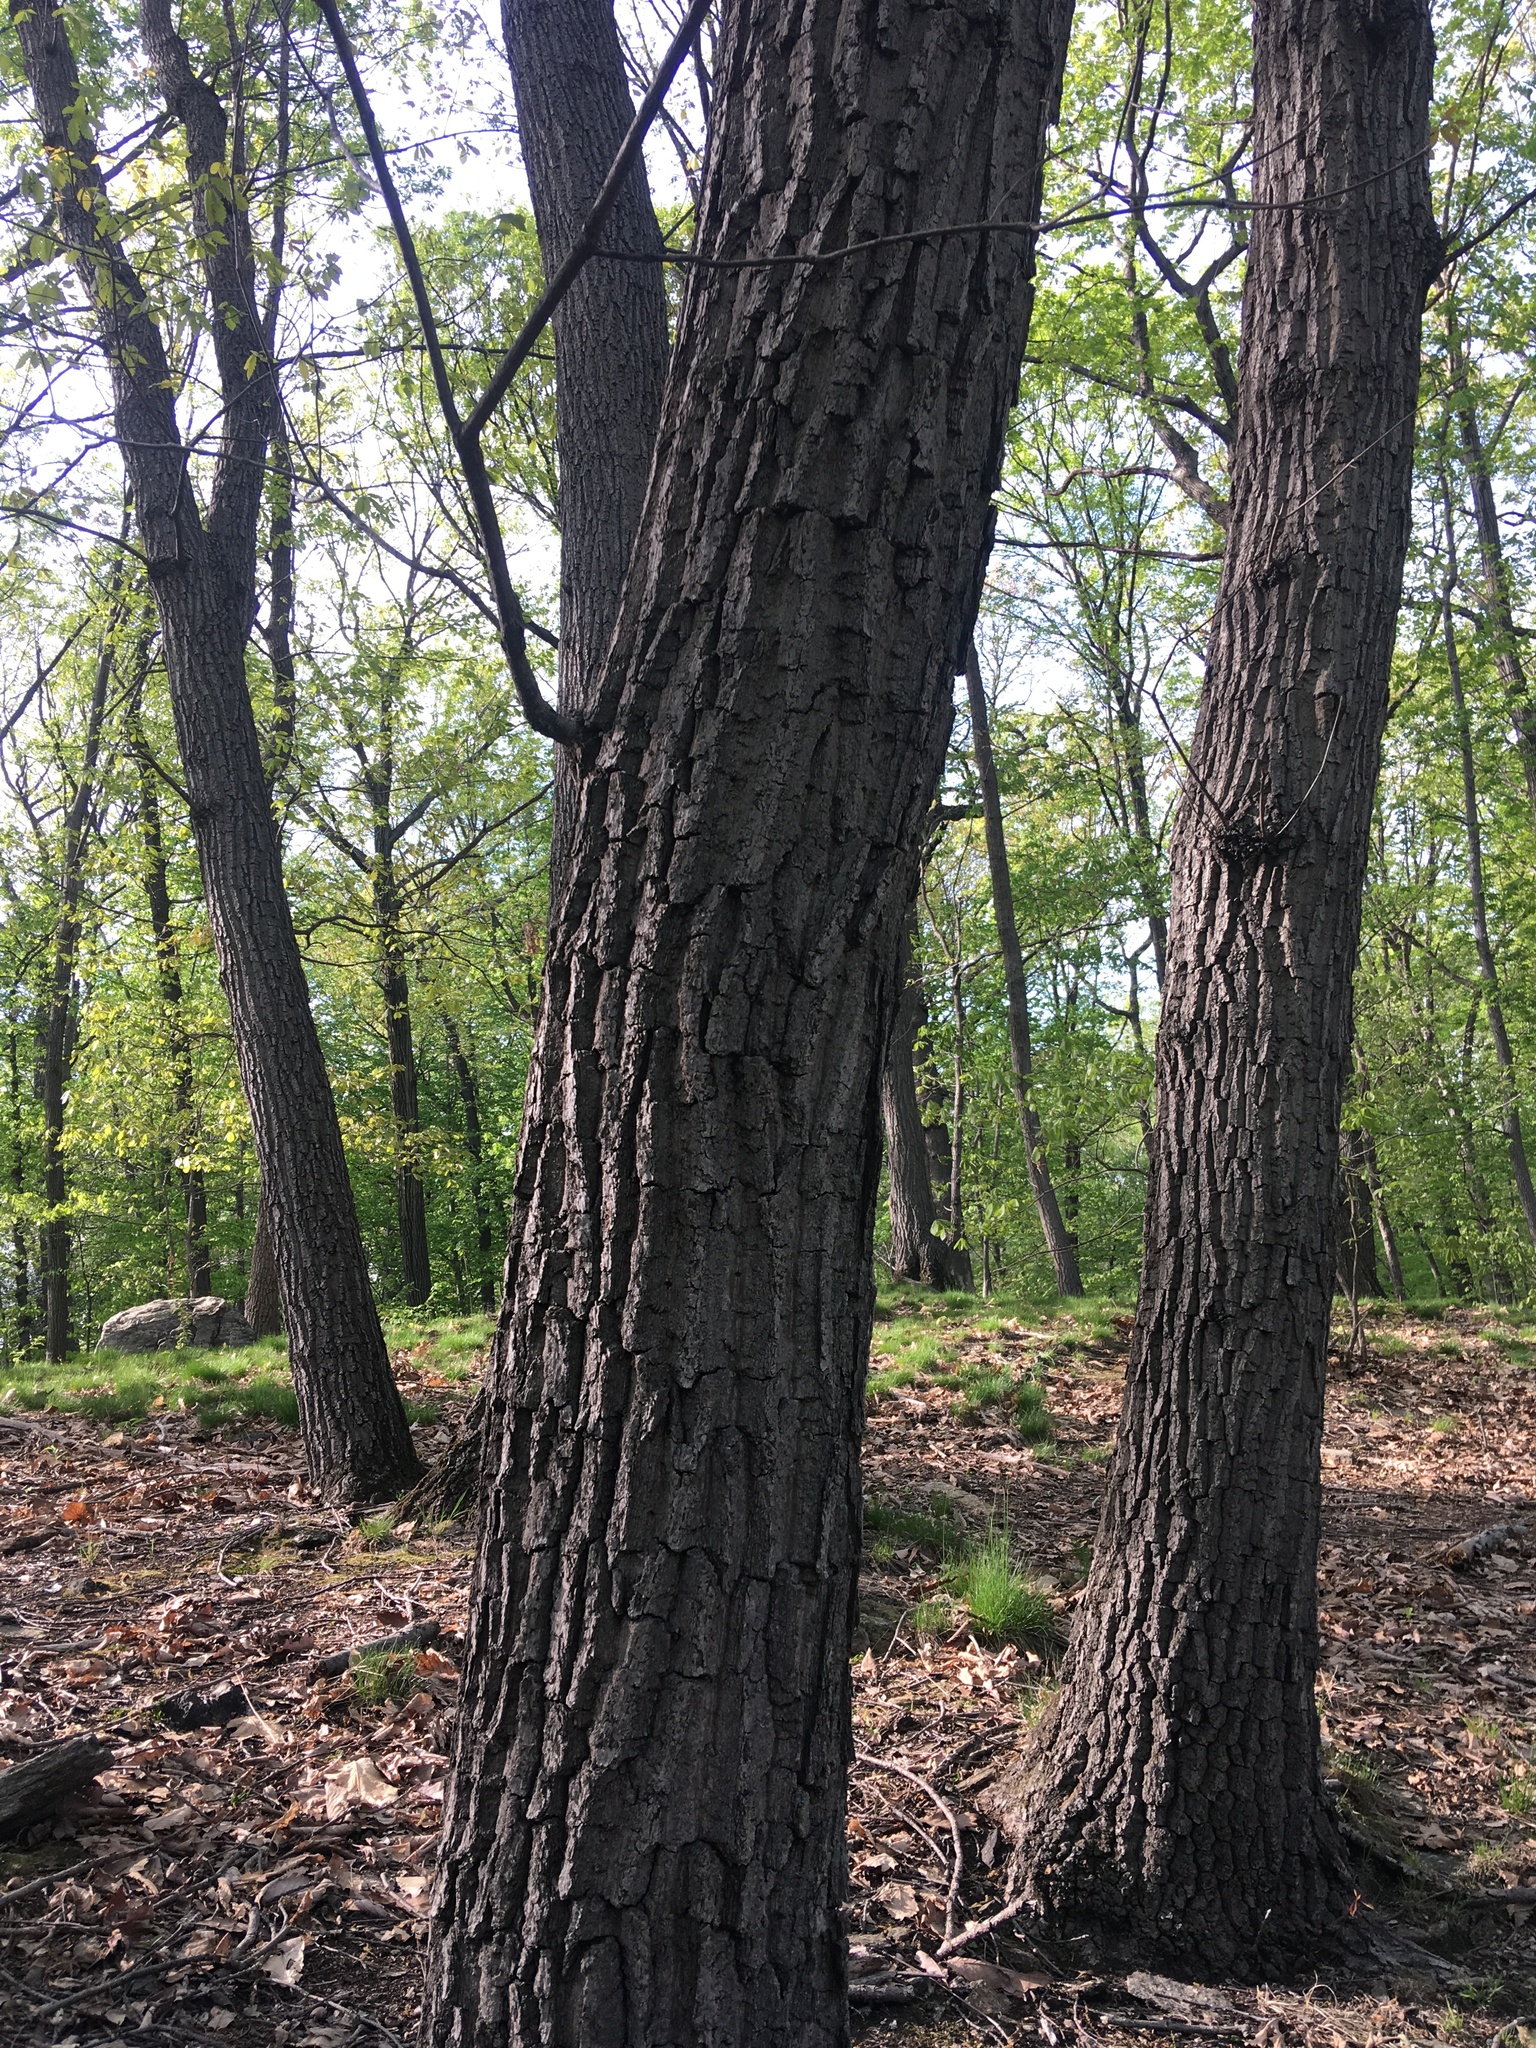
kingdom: Plantae
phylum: Tracheophyta
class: Magnoliopsida
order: Fagales
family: Fagaceae
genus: Quercus
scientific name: Quercus montana
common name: Chestnut oak
